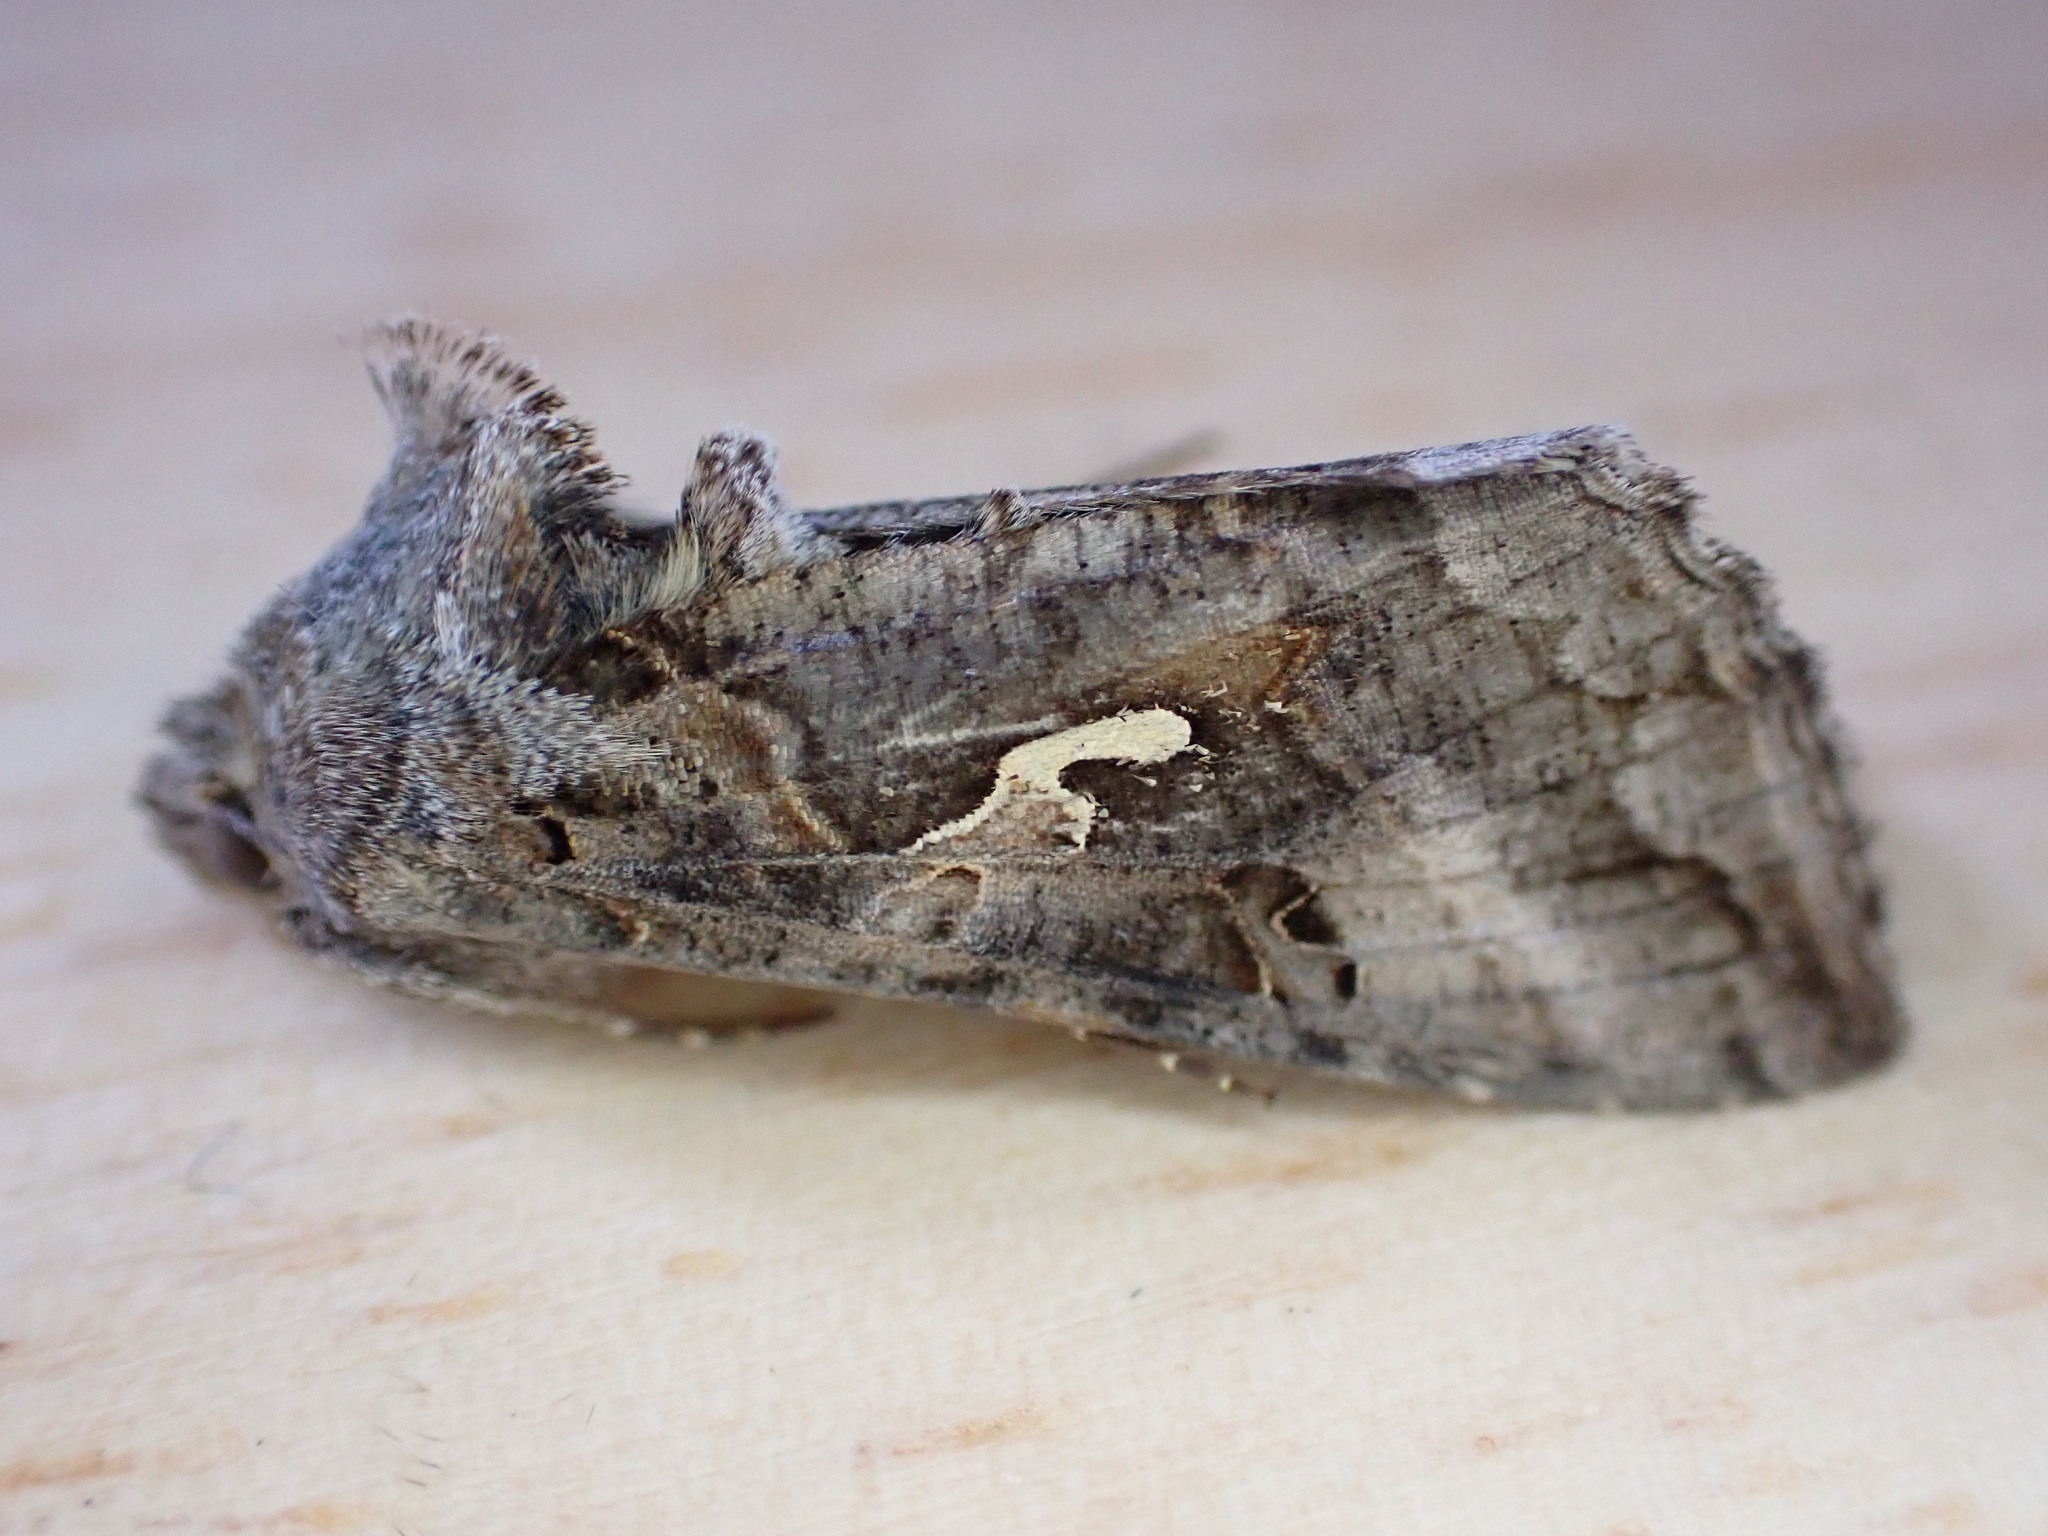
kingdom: Animalia
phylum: Arthropoda
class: Insecta
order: Lepidoptera
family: Noctuidae
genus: Autographa
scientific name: Autographa gamma
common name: Silver y
